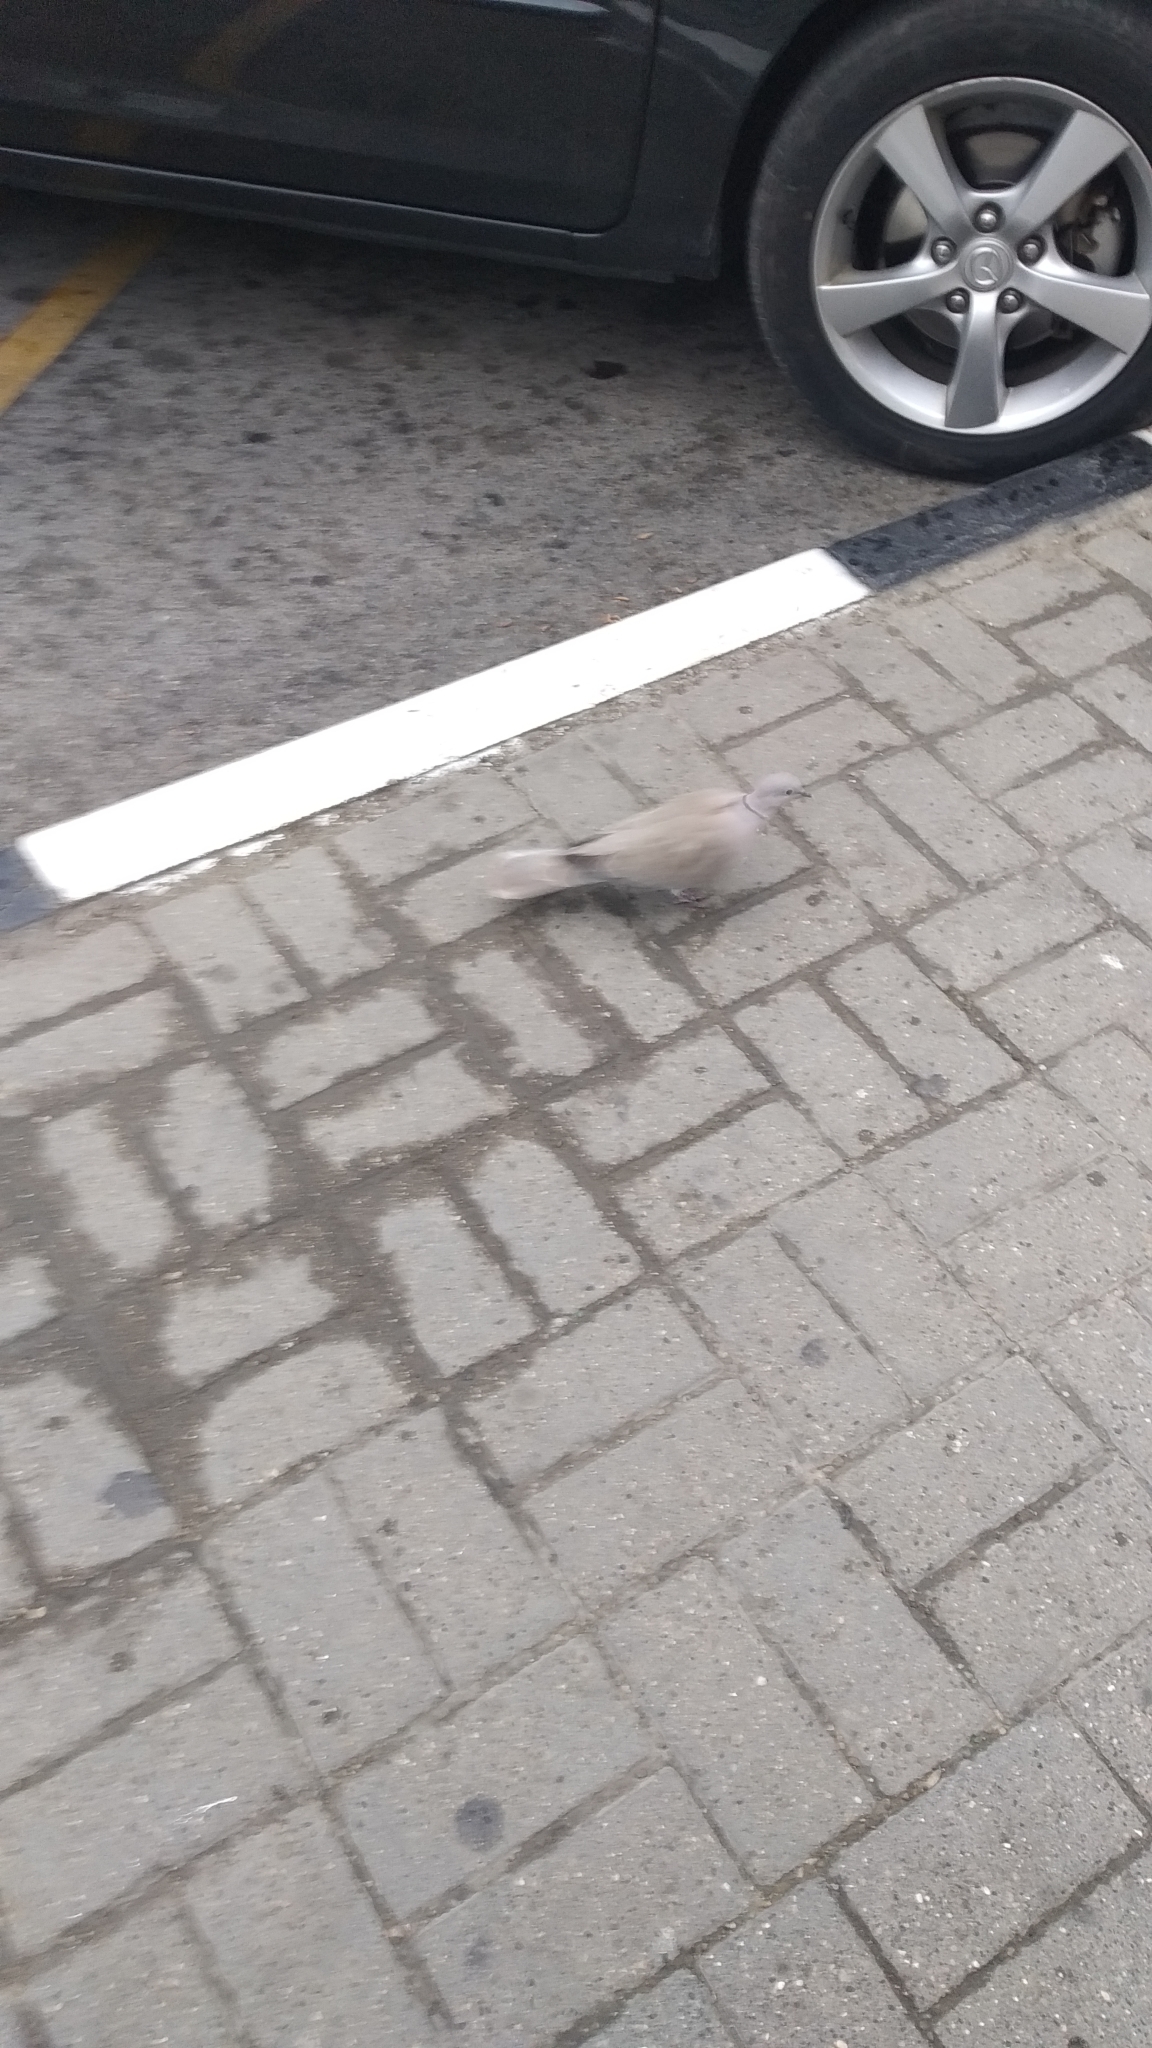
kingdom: Animalia
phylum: Chordata
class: Aves
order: Columbiformes
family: Columbidae
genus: Streptopelia
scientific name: Streptopelia decaocto
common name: Eurasian collared dove
